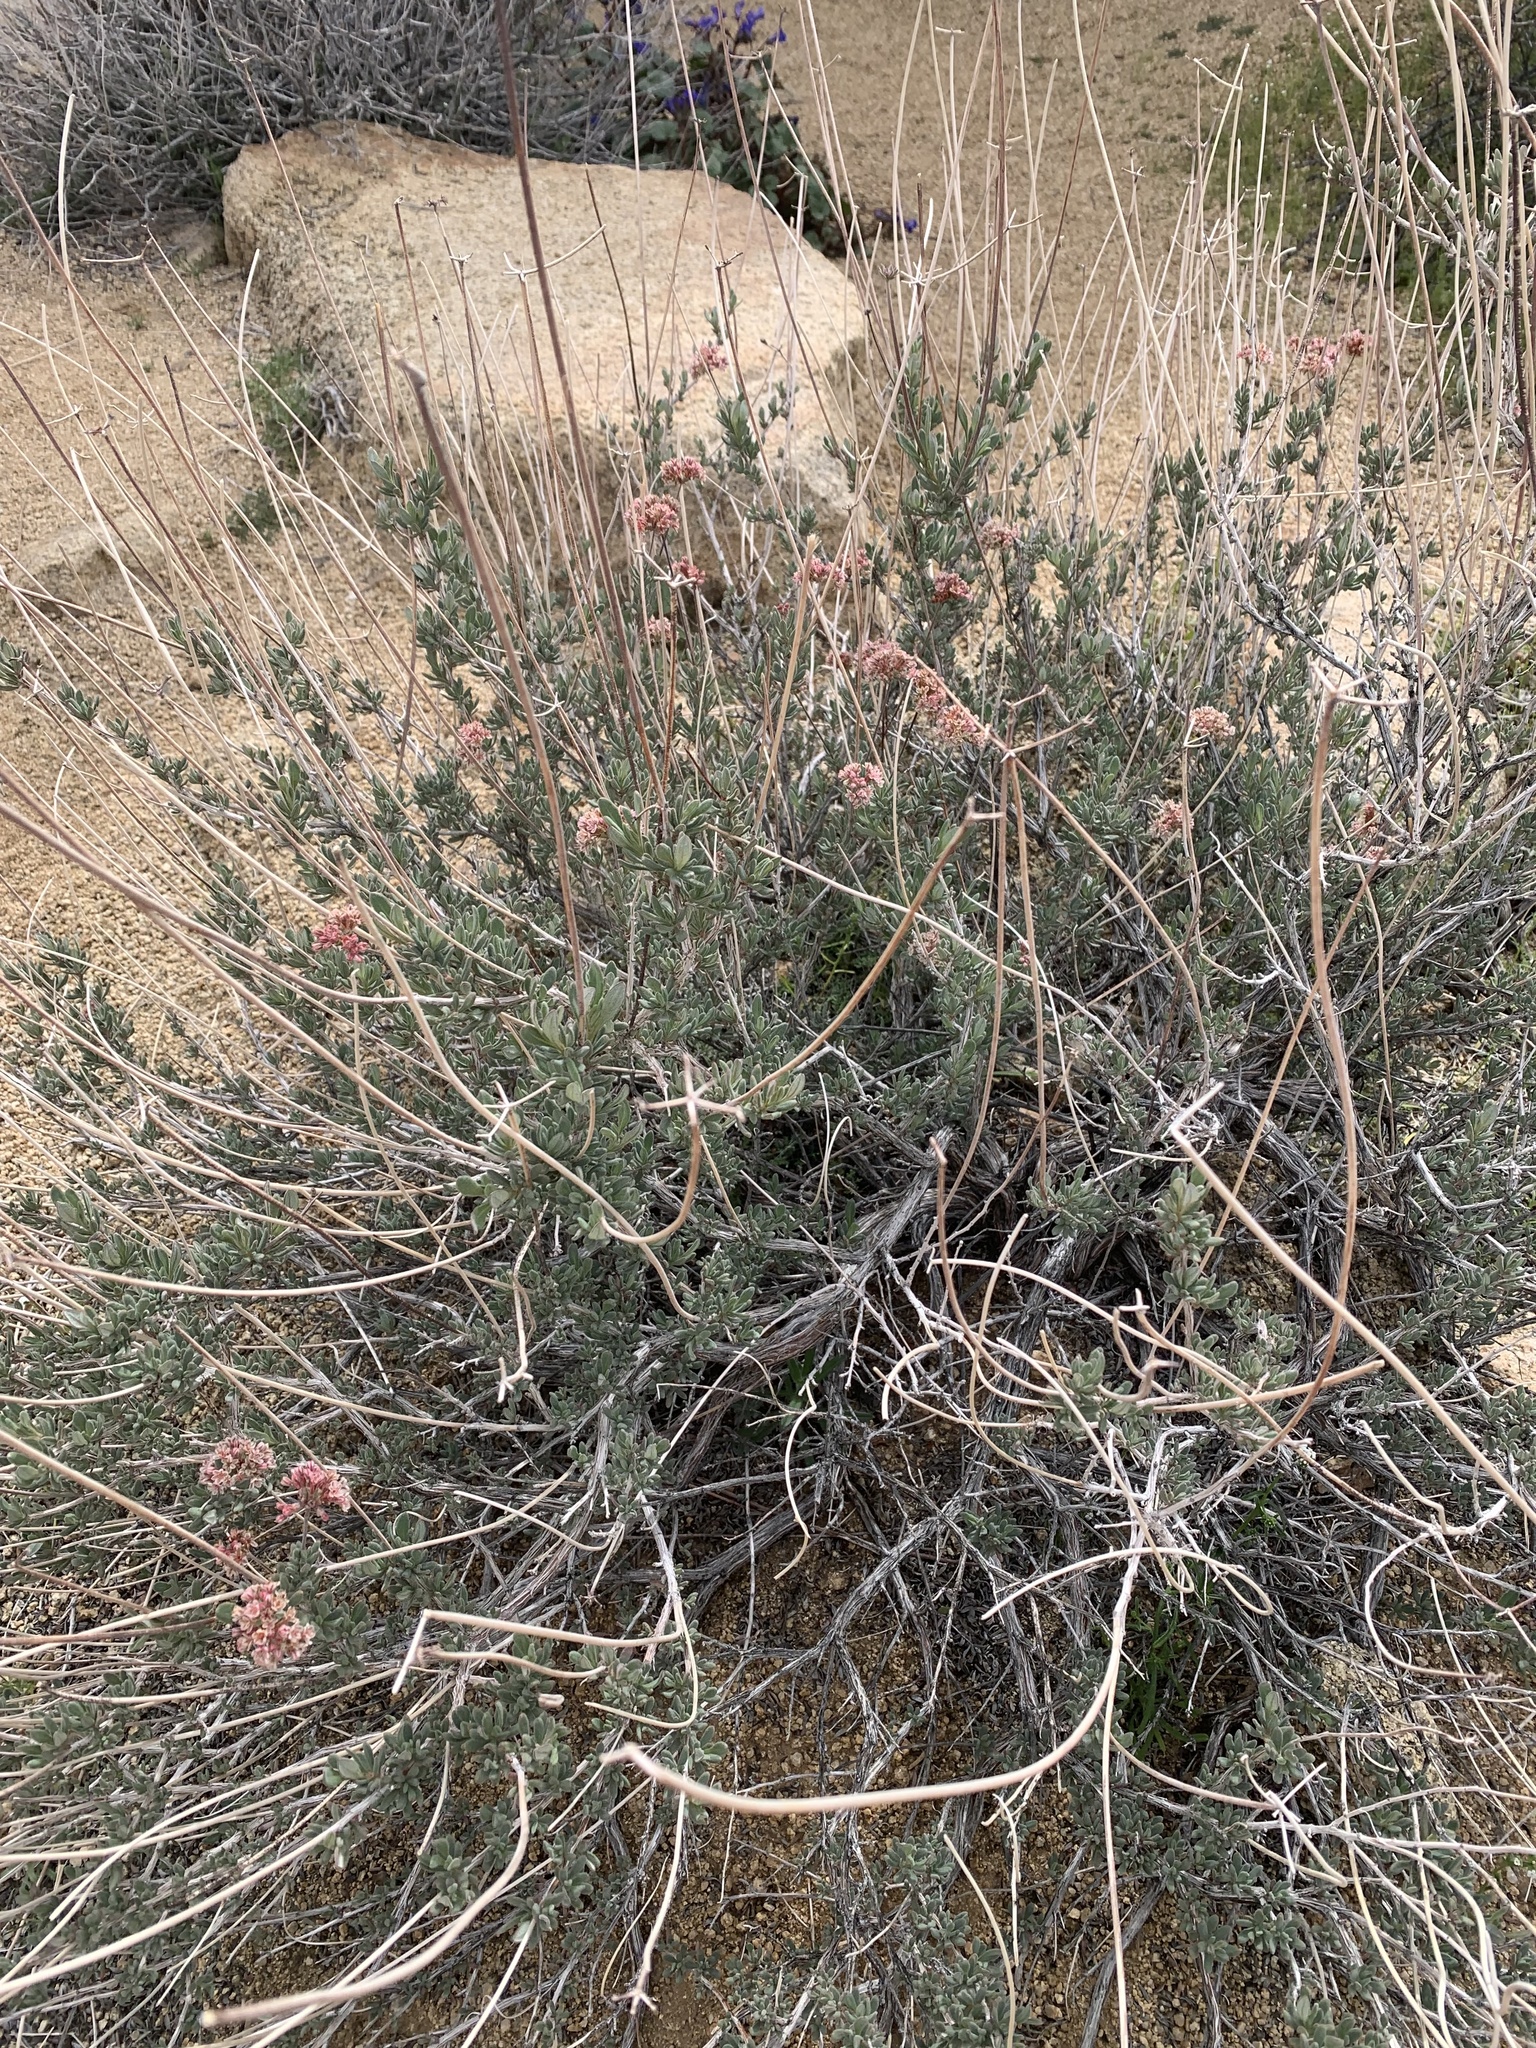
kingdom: Plantae
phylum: Tracheophyta
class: Magnoliopsida
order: Caryophyllales
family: Polygonaceae
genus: Eriogonum
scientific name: Eriogonum fasciculatum
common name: California wild buckwheat
